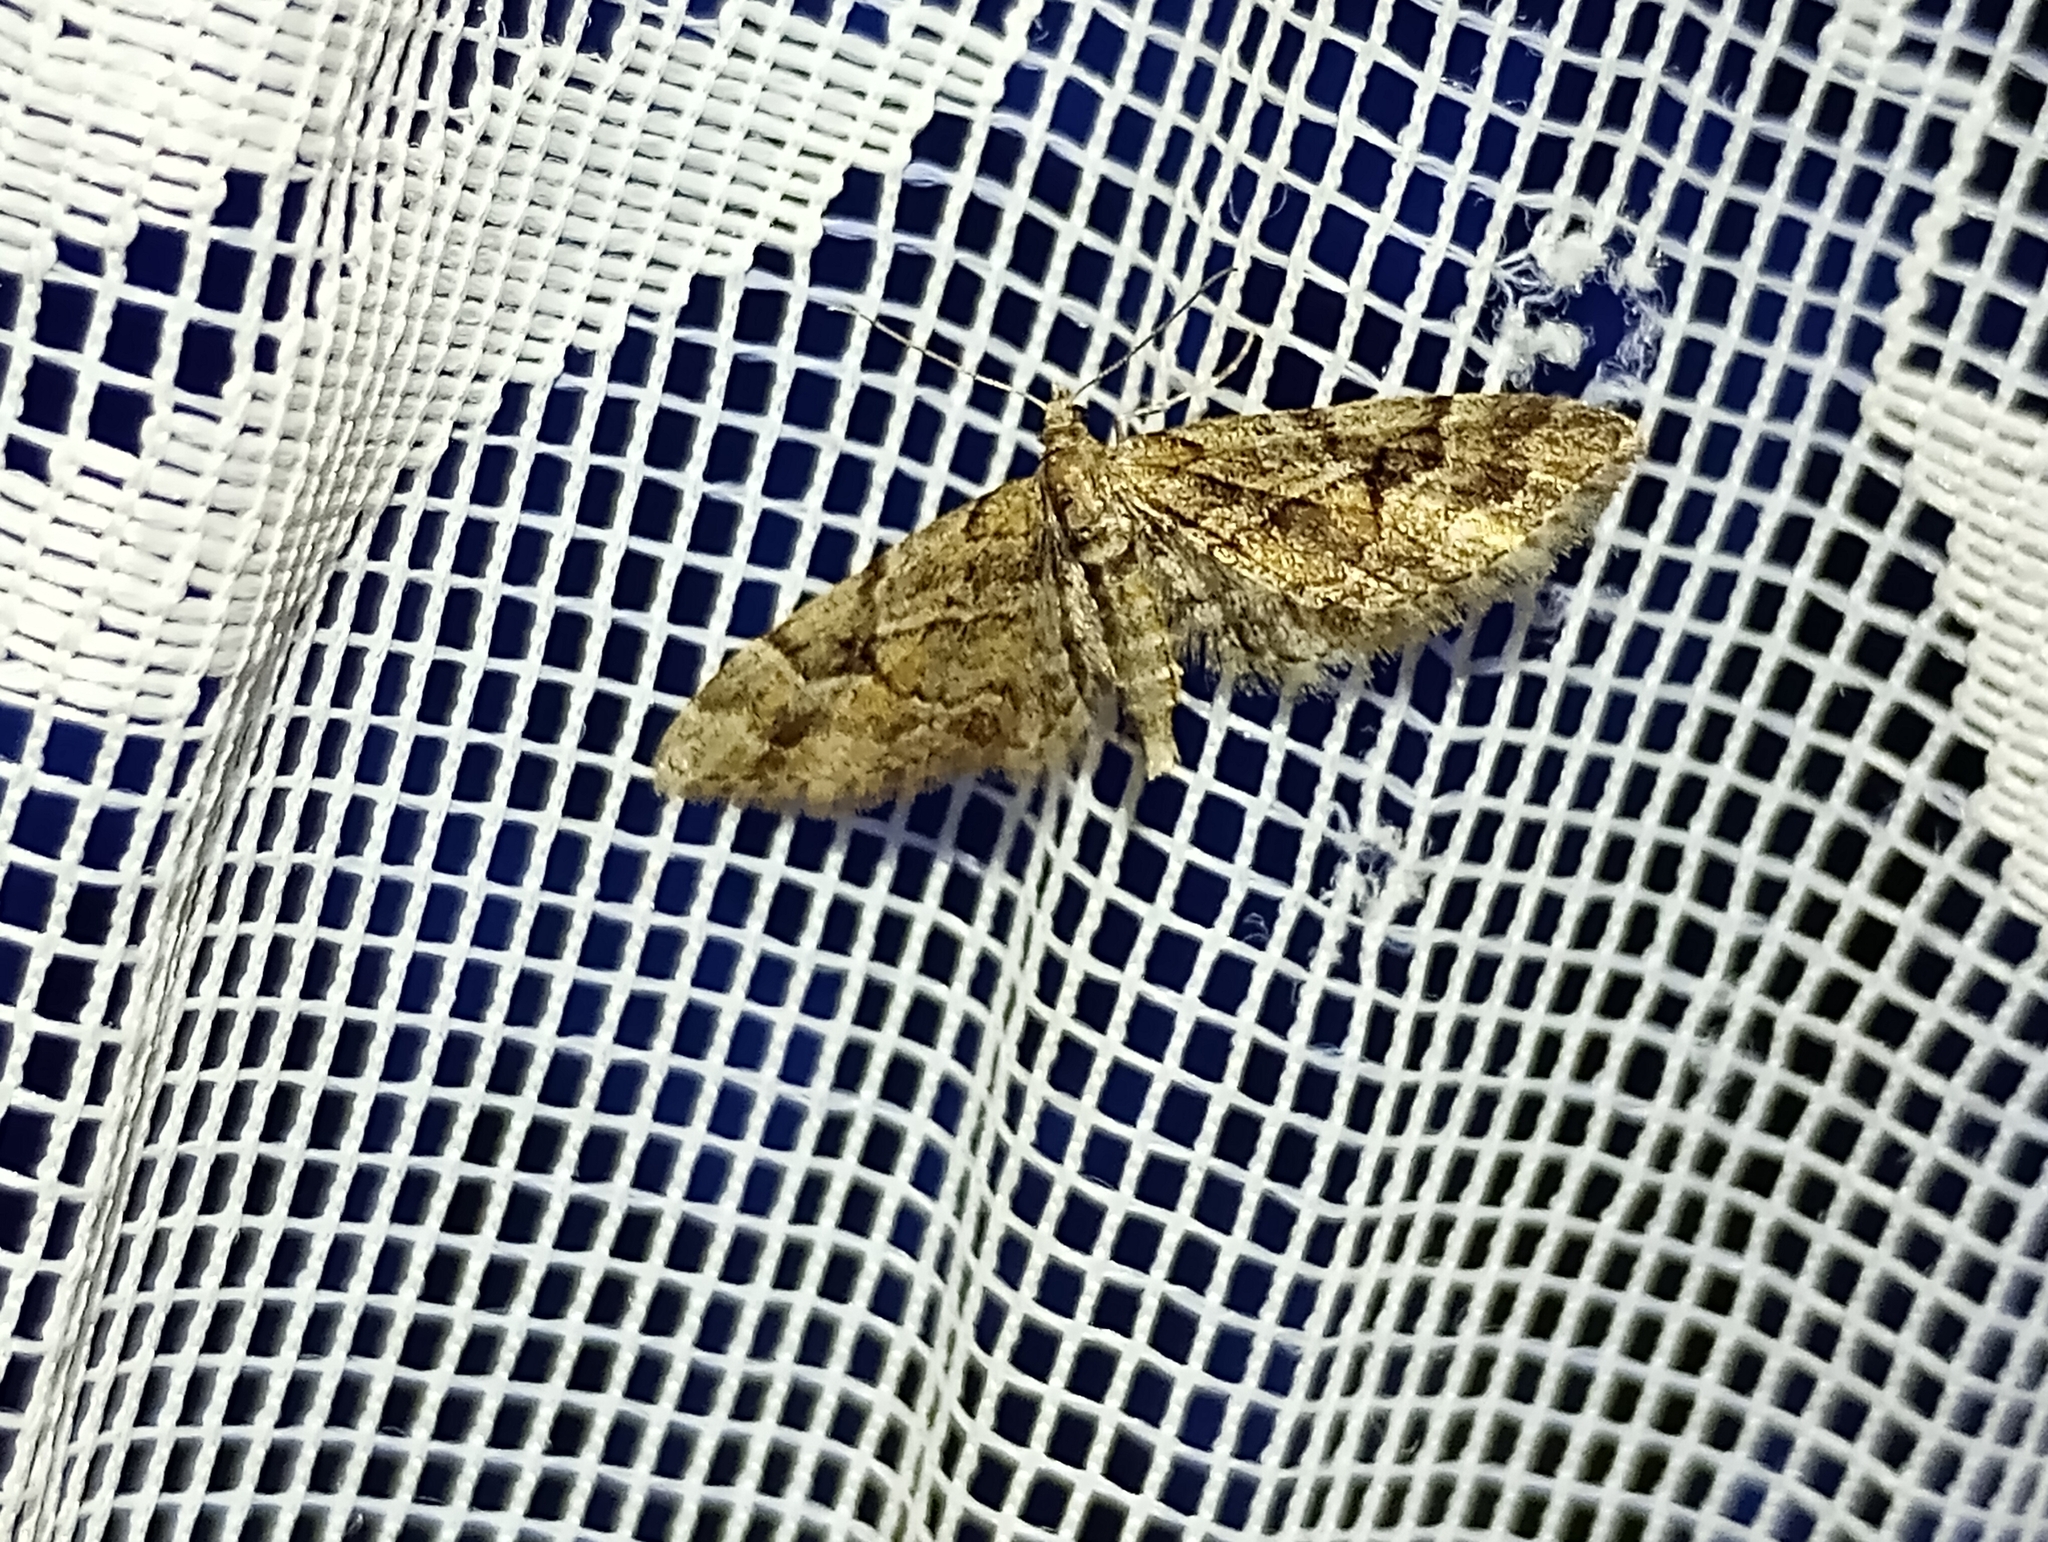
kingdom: Animalia
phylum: Arthropoda
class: Insecta
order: Lepidoptera
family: Geometridae
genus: Eupithecia
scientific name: Eupithecia lanceata
